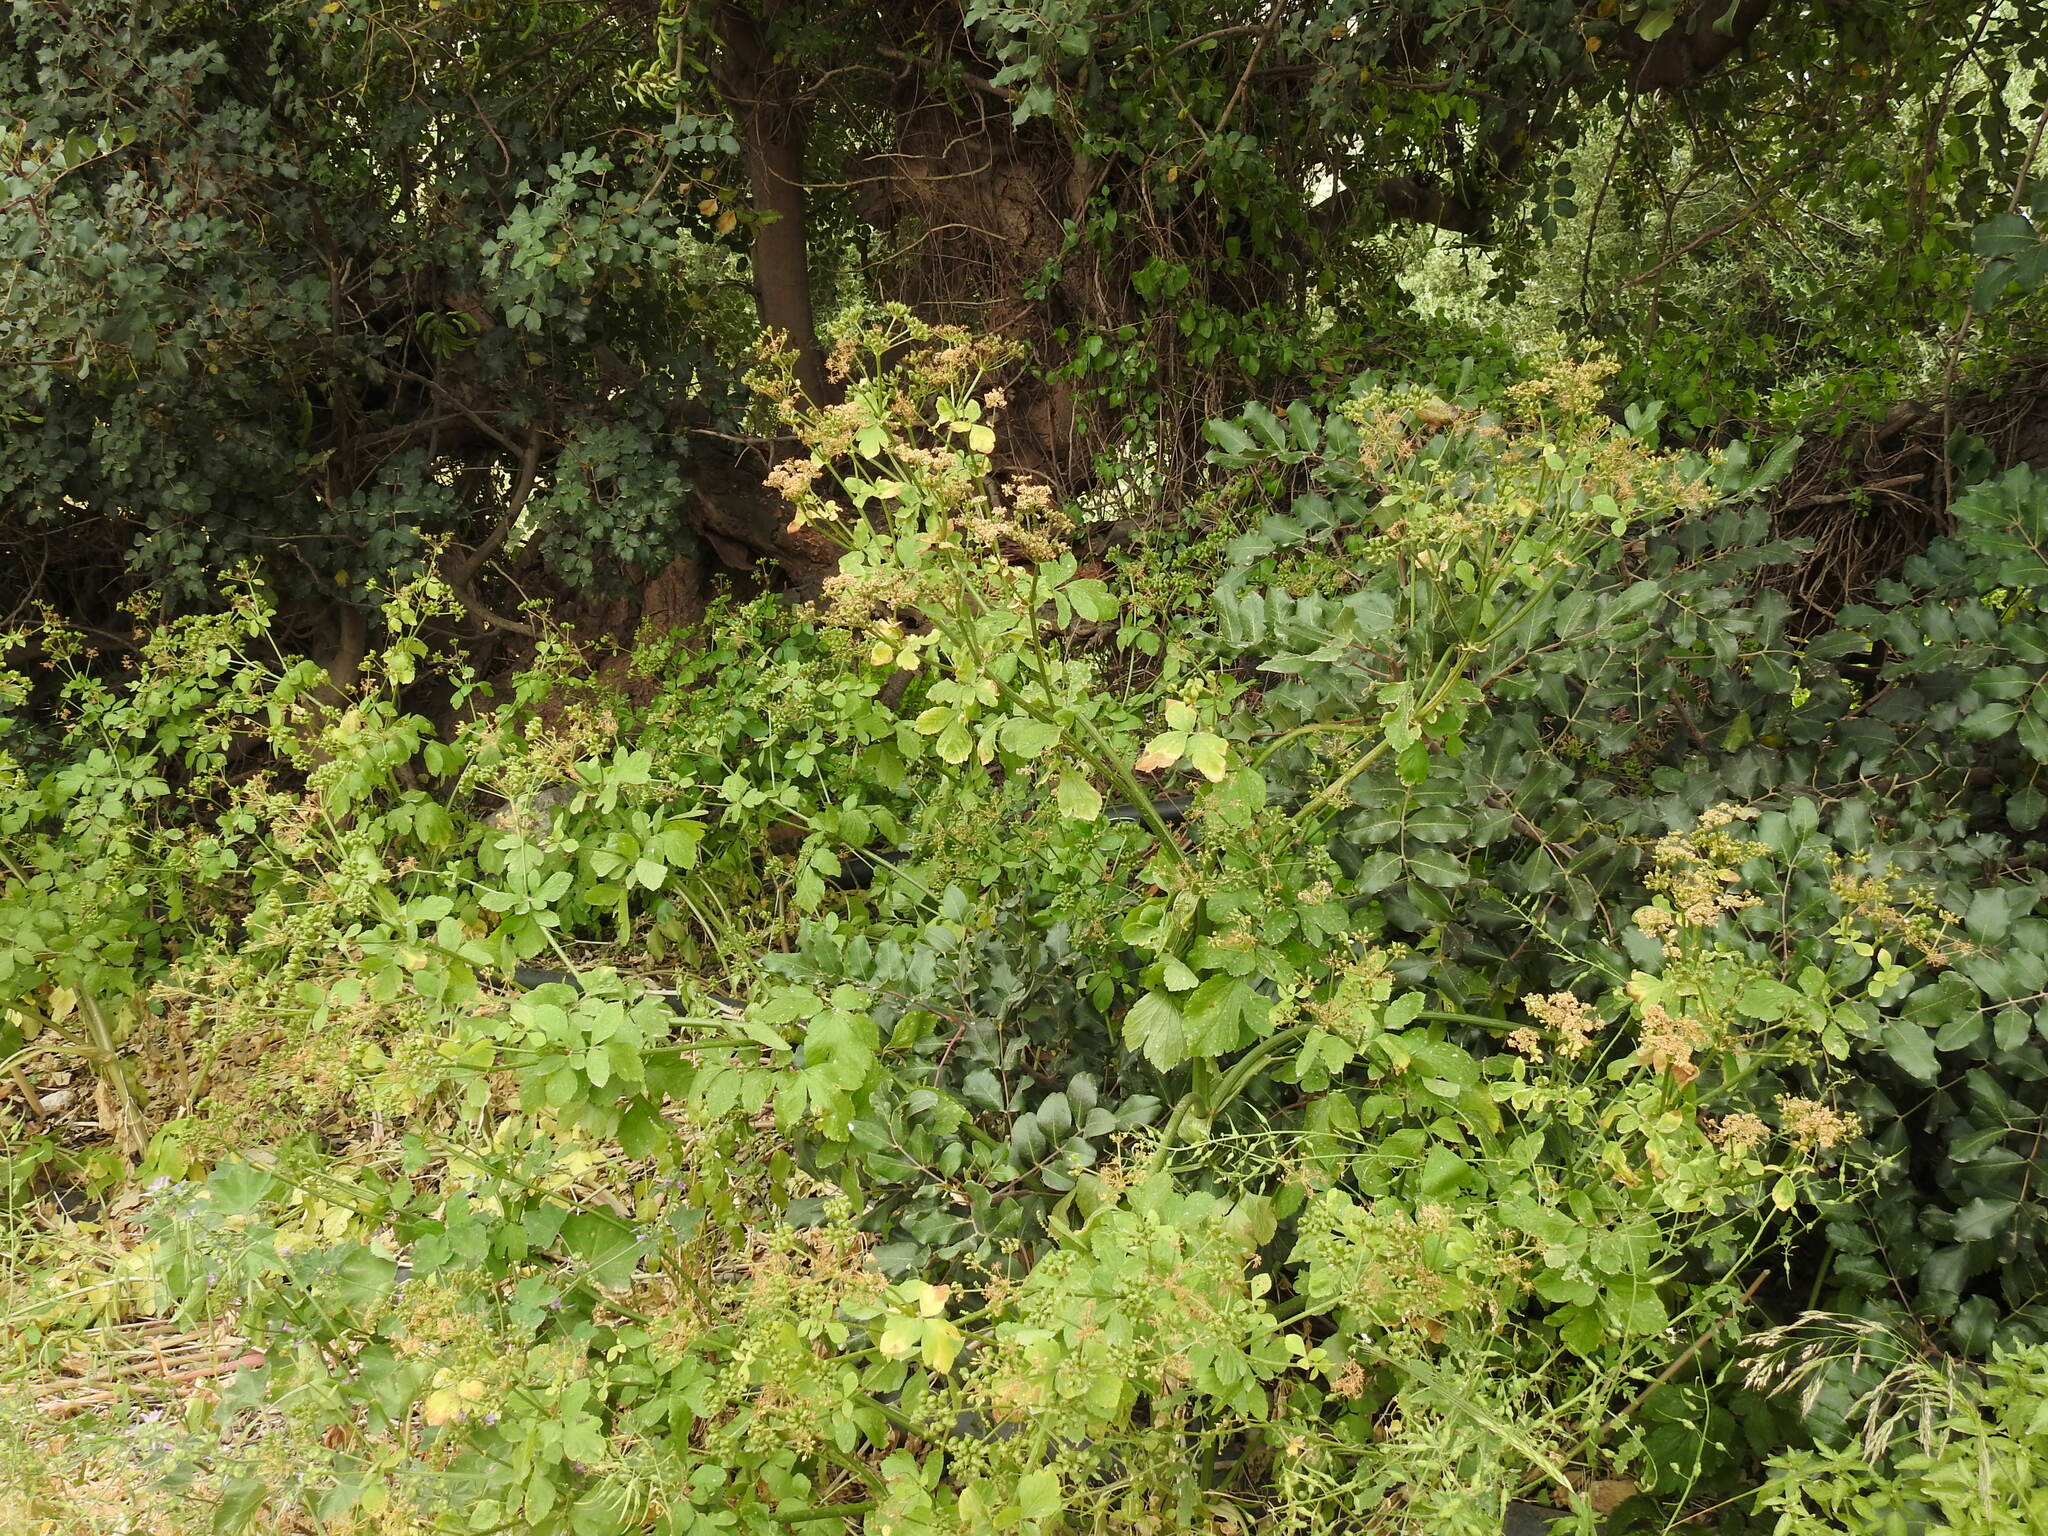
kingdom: Plantae
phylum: Tracheophyta
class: Magnoliopsida
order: Apiales
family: Apiaceae
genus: Smyrnium
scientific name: Smyrnium olusatrum
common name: Alexanders
